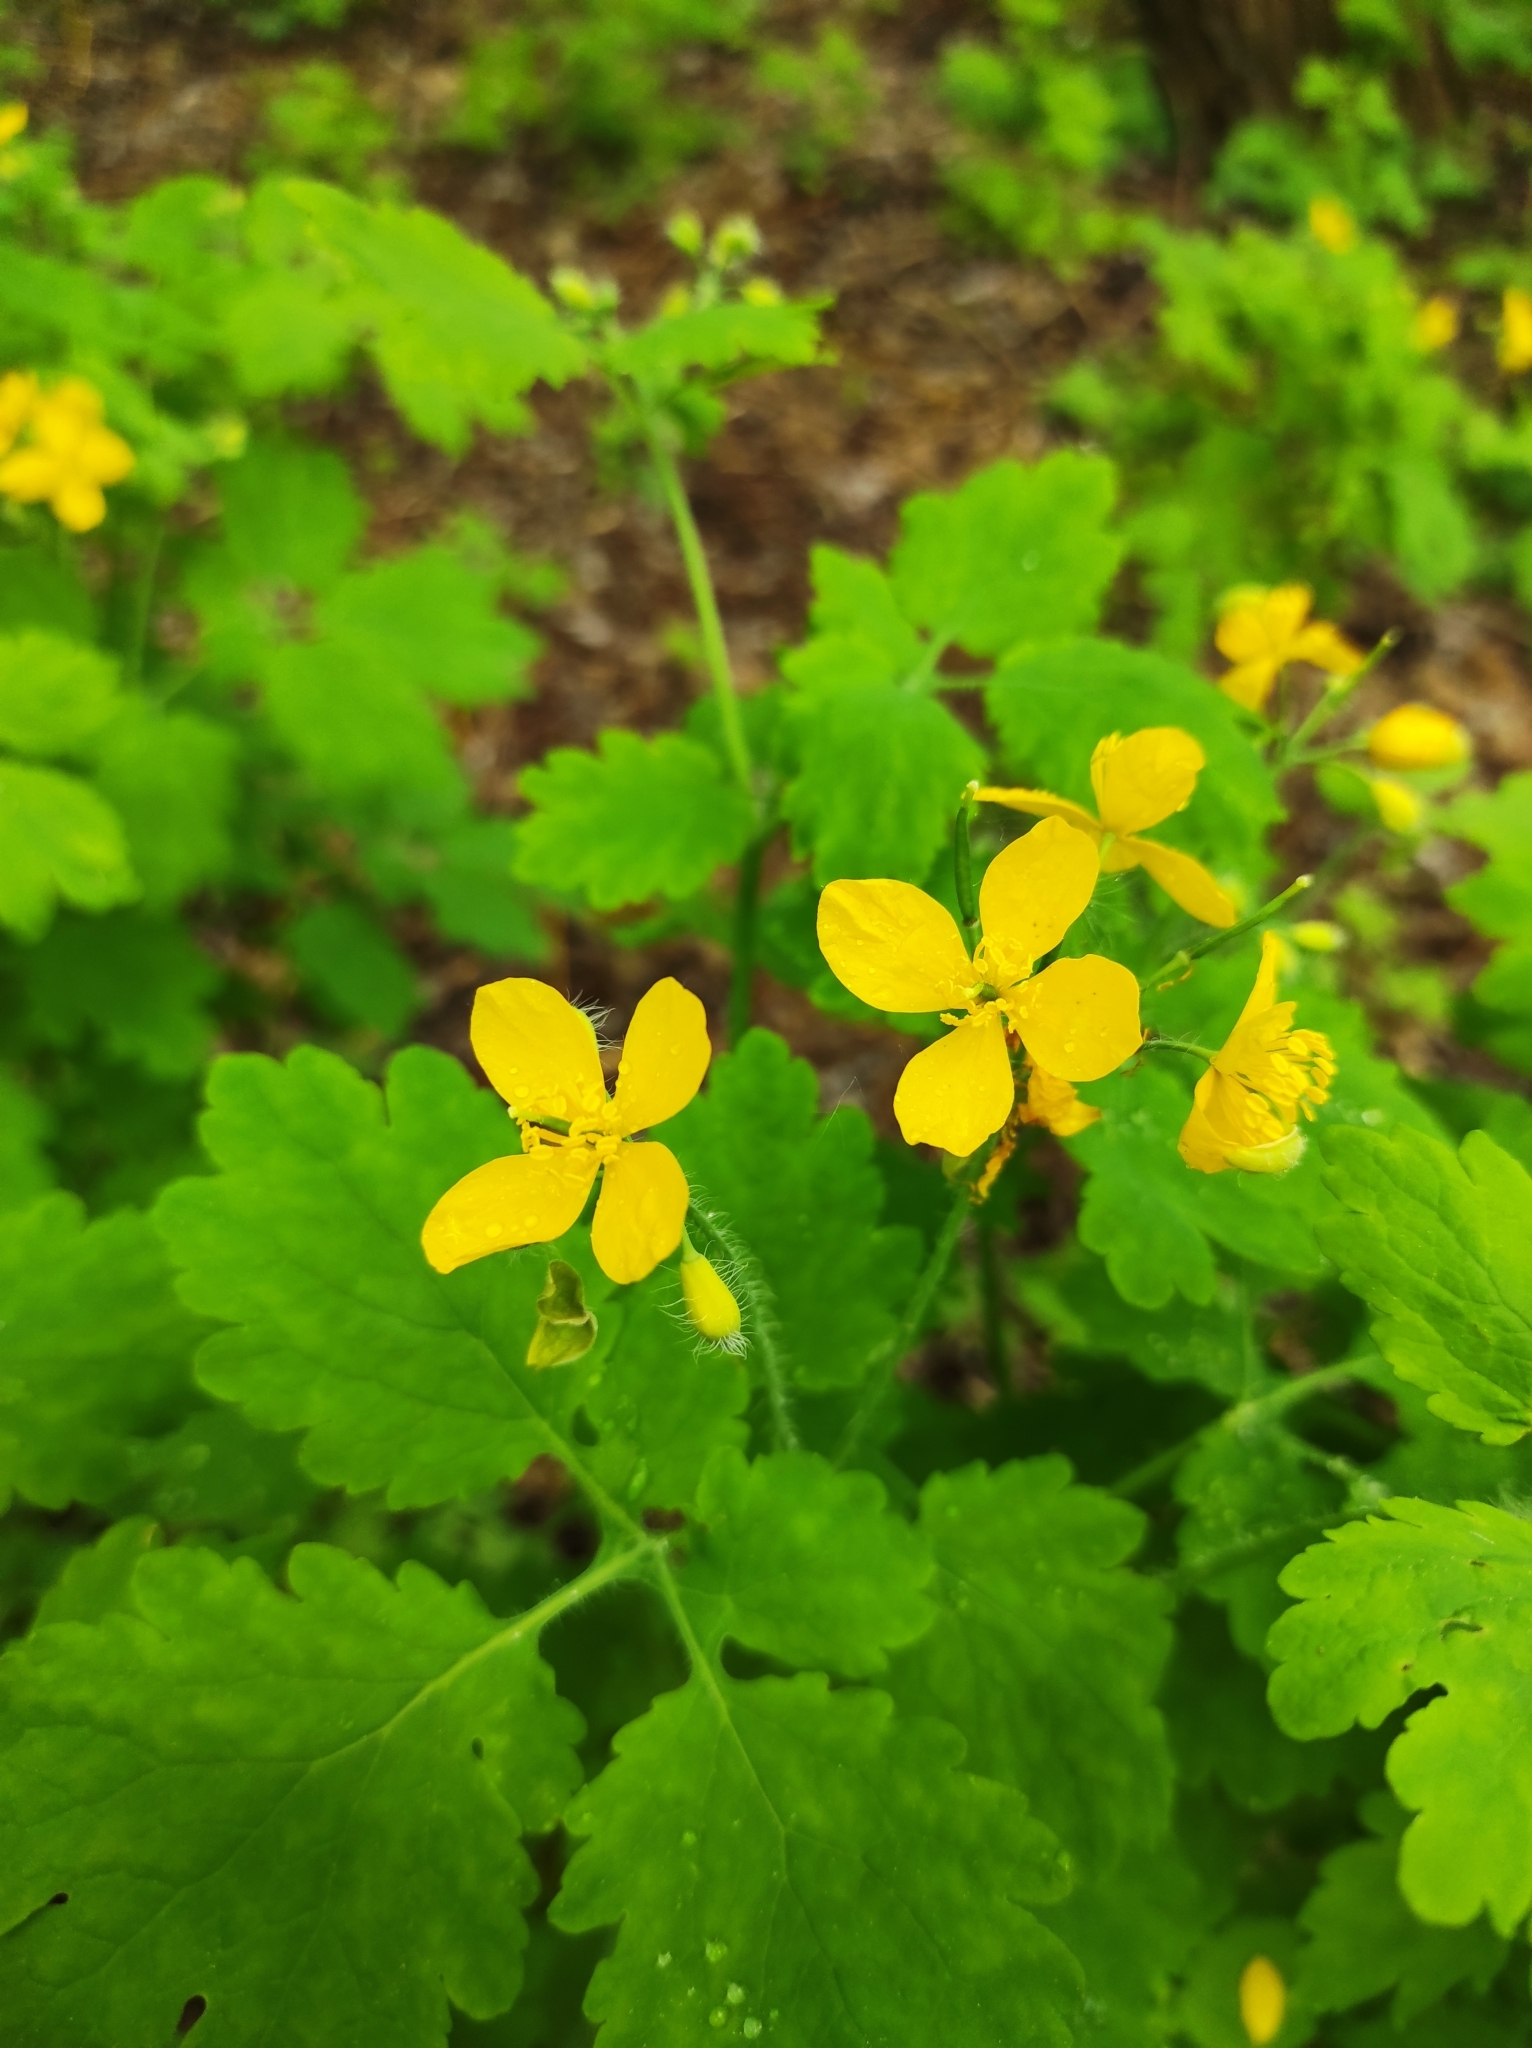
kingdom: Plantae
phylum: Tracheophyta
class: Magnoliopsida
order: Ranunculales
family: Papaveraceae
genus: Chelidonium
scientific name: Chelidonium majus
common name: Greater celandine
